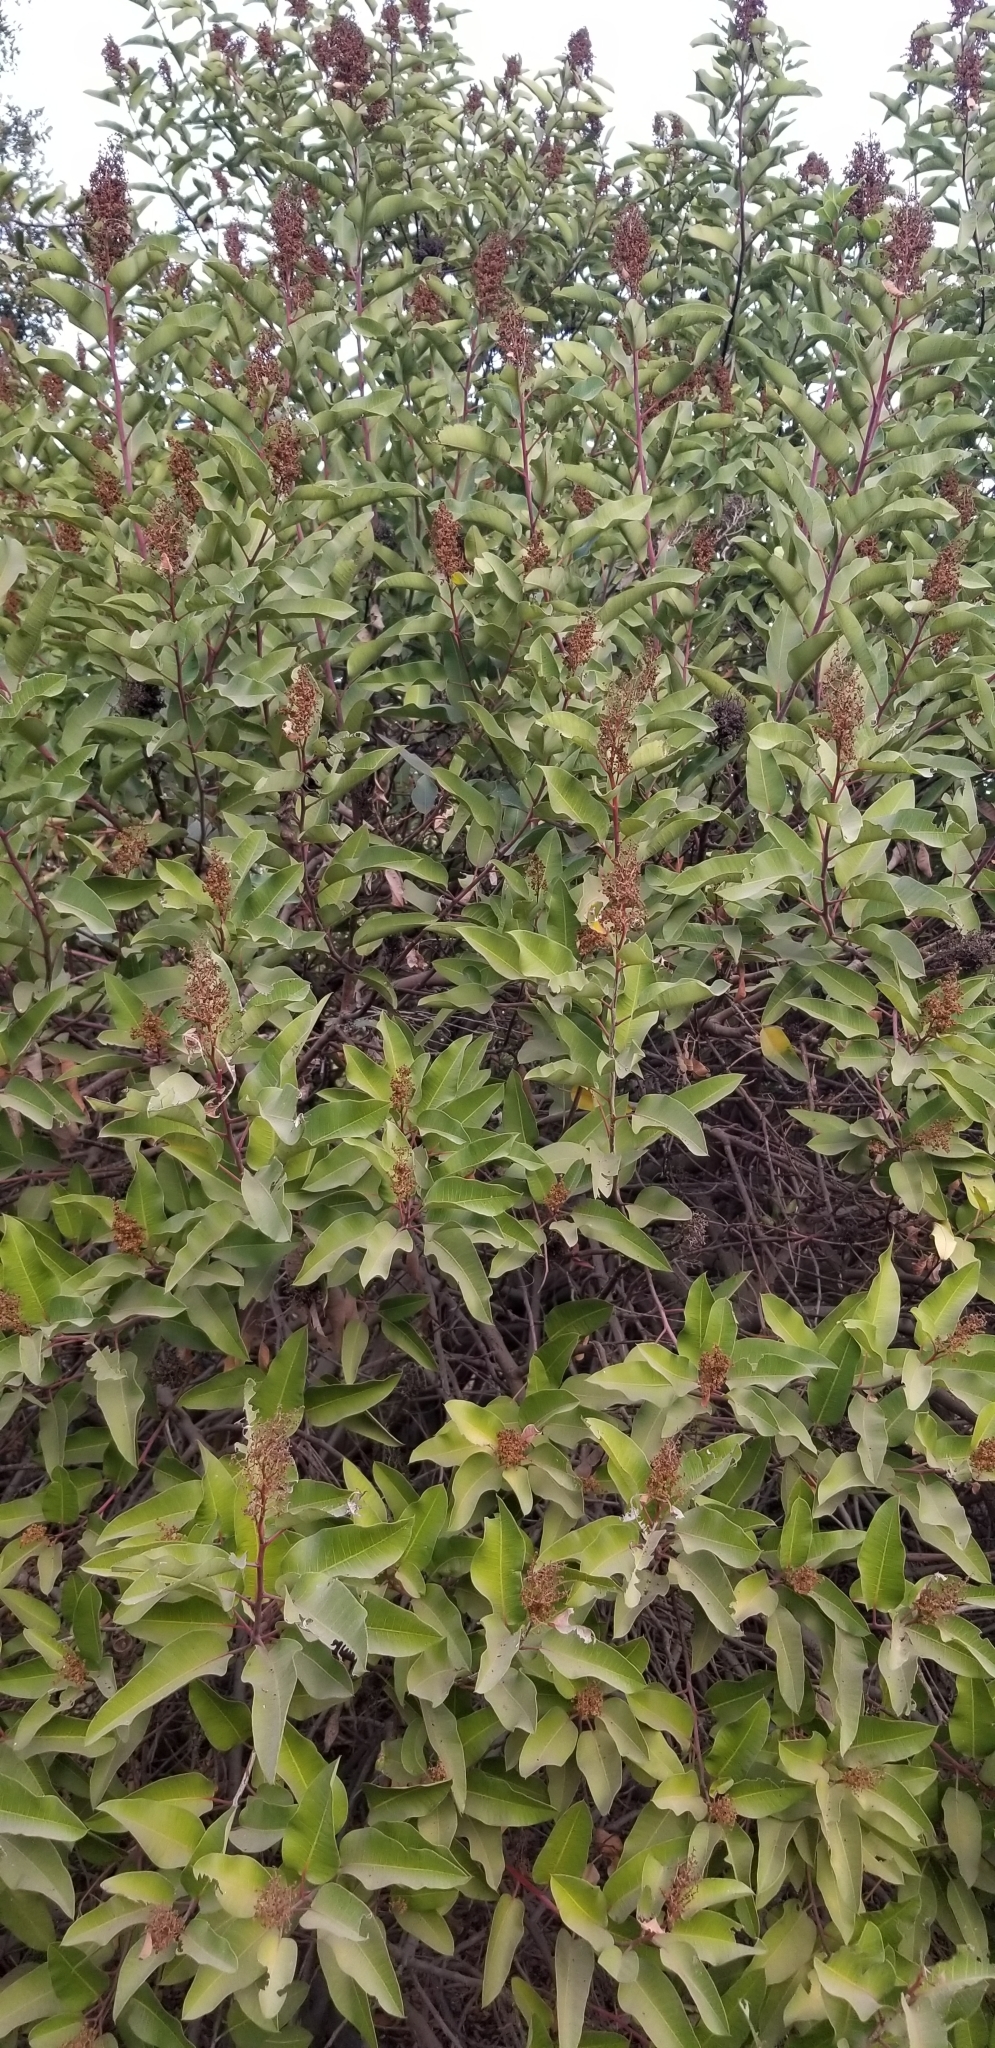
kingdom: Plantae
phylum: Tracheophyta
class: Magnoliopsida
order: Sapindales
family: Anacardiaceae
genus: Malosma
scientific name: Malosma laurina
